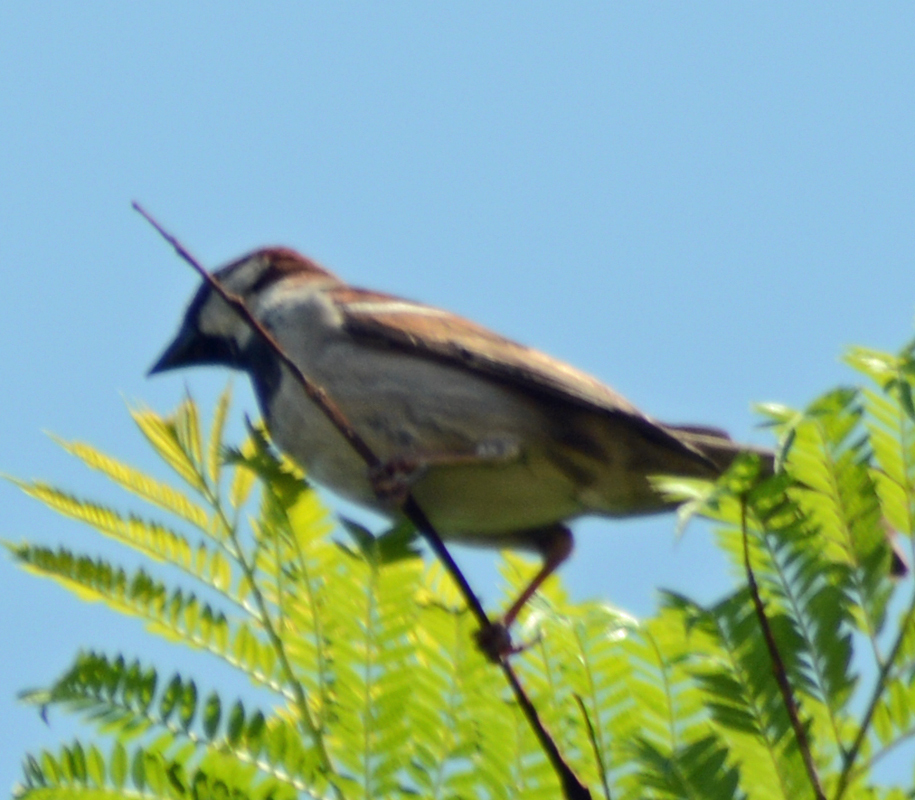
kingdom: Animalia
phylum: Chordata
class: Aves
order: Passeriformes
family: Passeridae
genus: Passer
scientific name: Passer domesticus
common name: House sparrow
